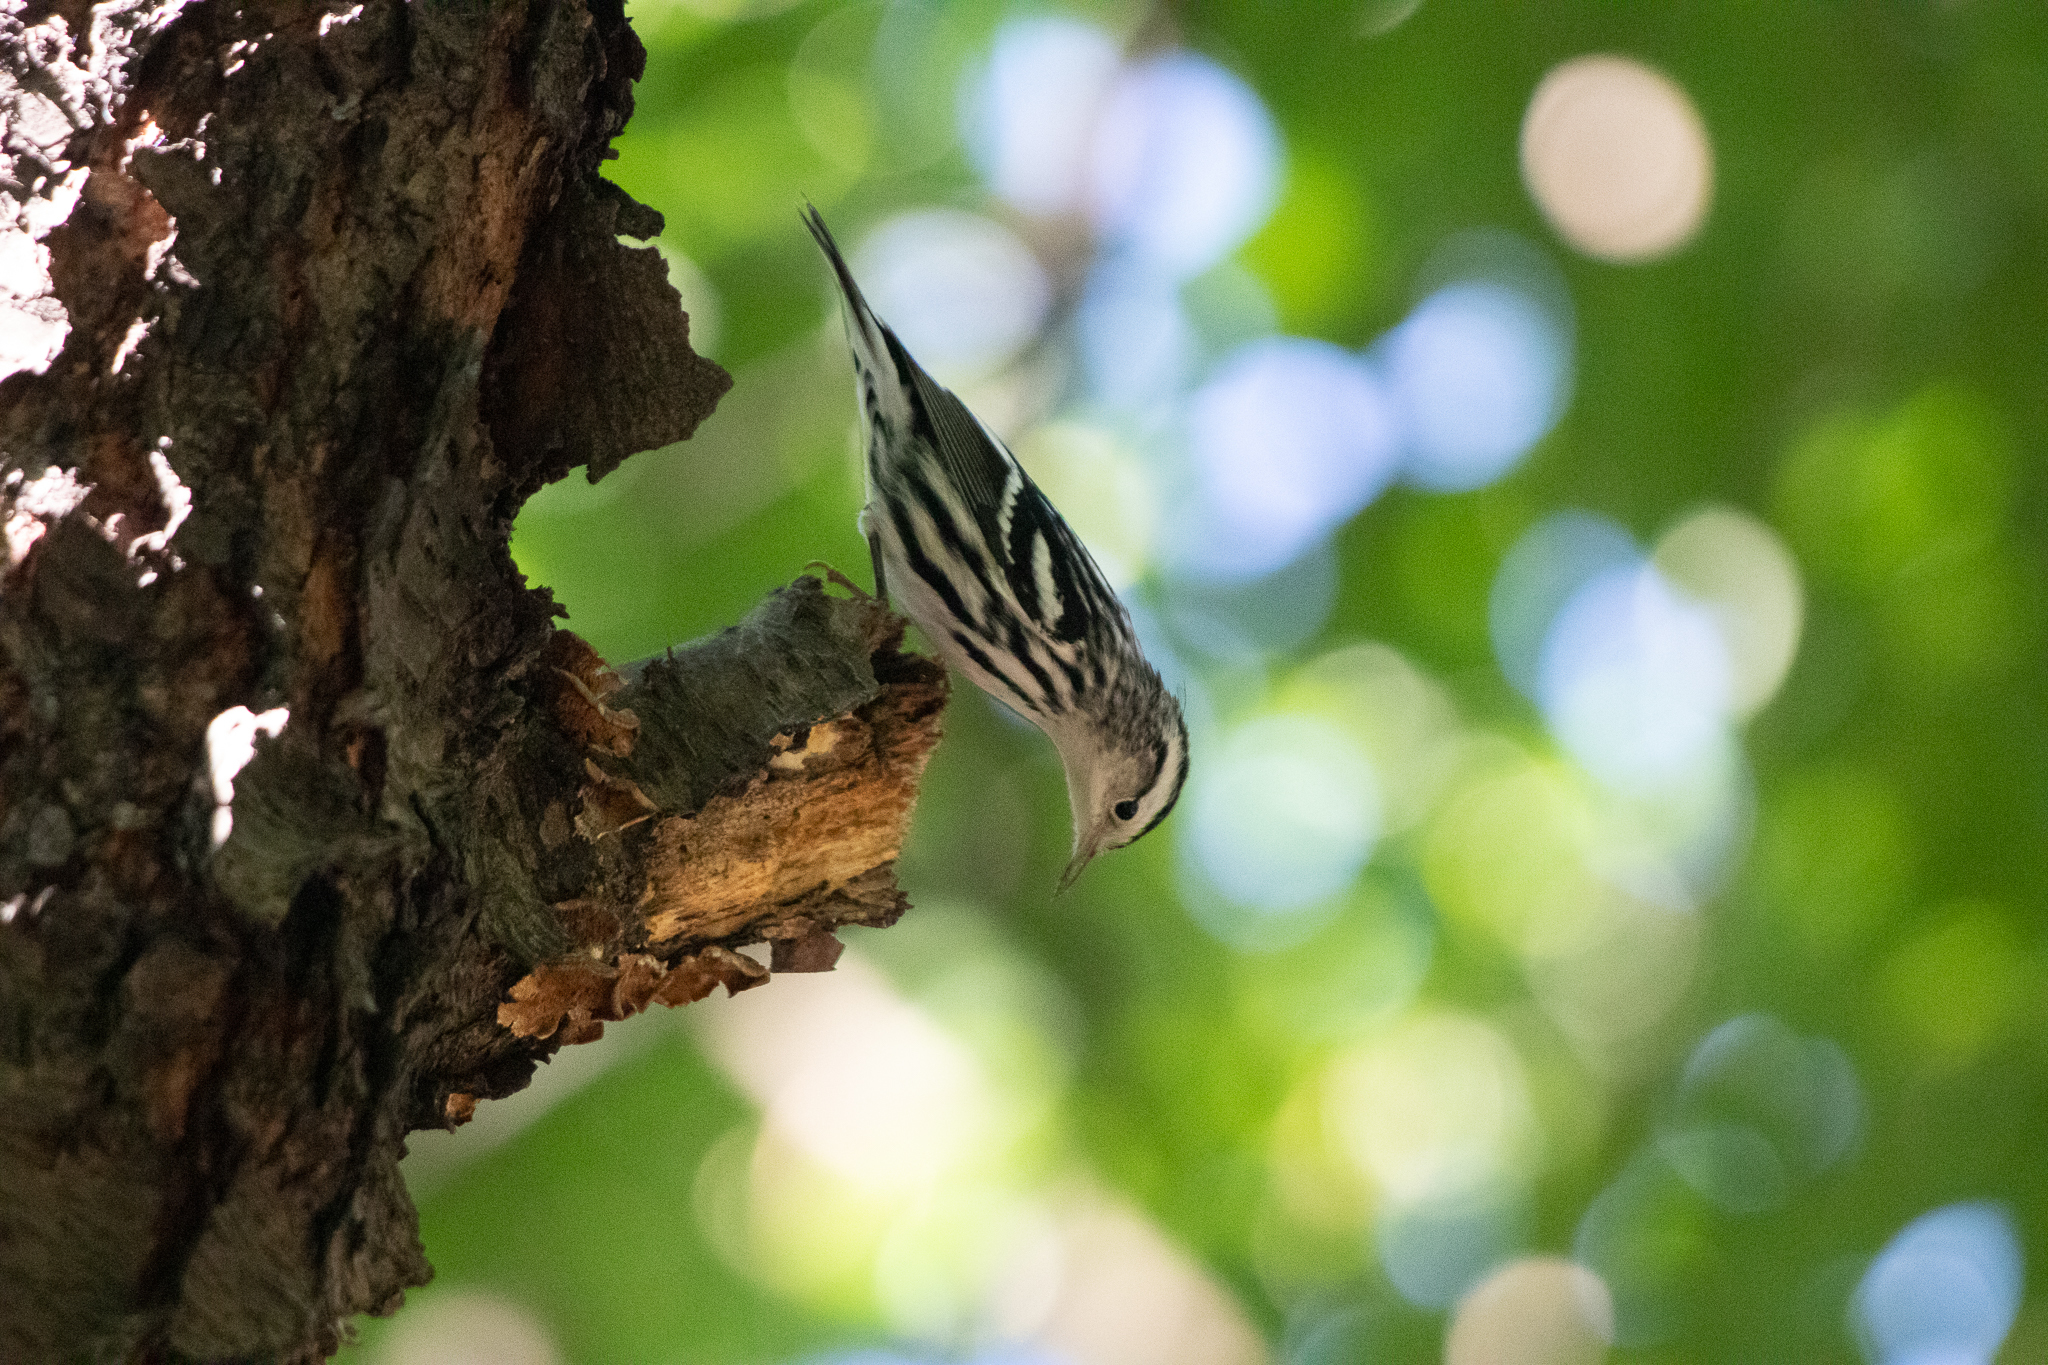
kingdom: Animalia
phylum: Chordata
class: Aves
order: Passeriformes
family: Parulidae
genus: Mniotilta
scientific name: Mniotilta varia
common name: Black-and-white warbler
